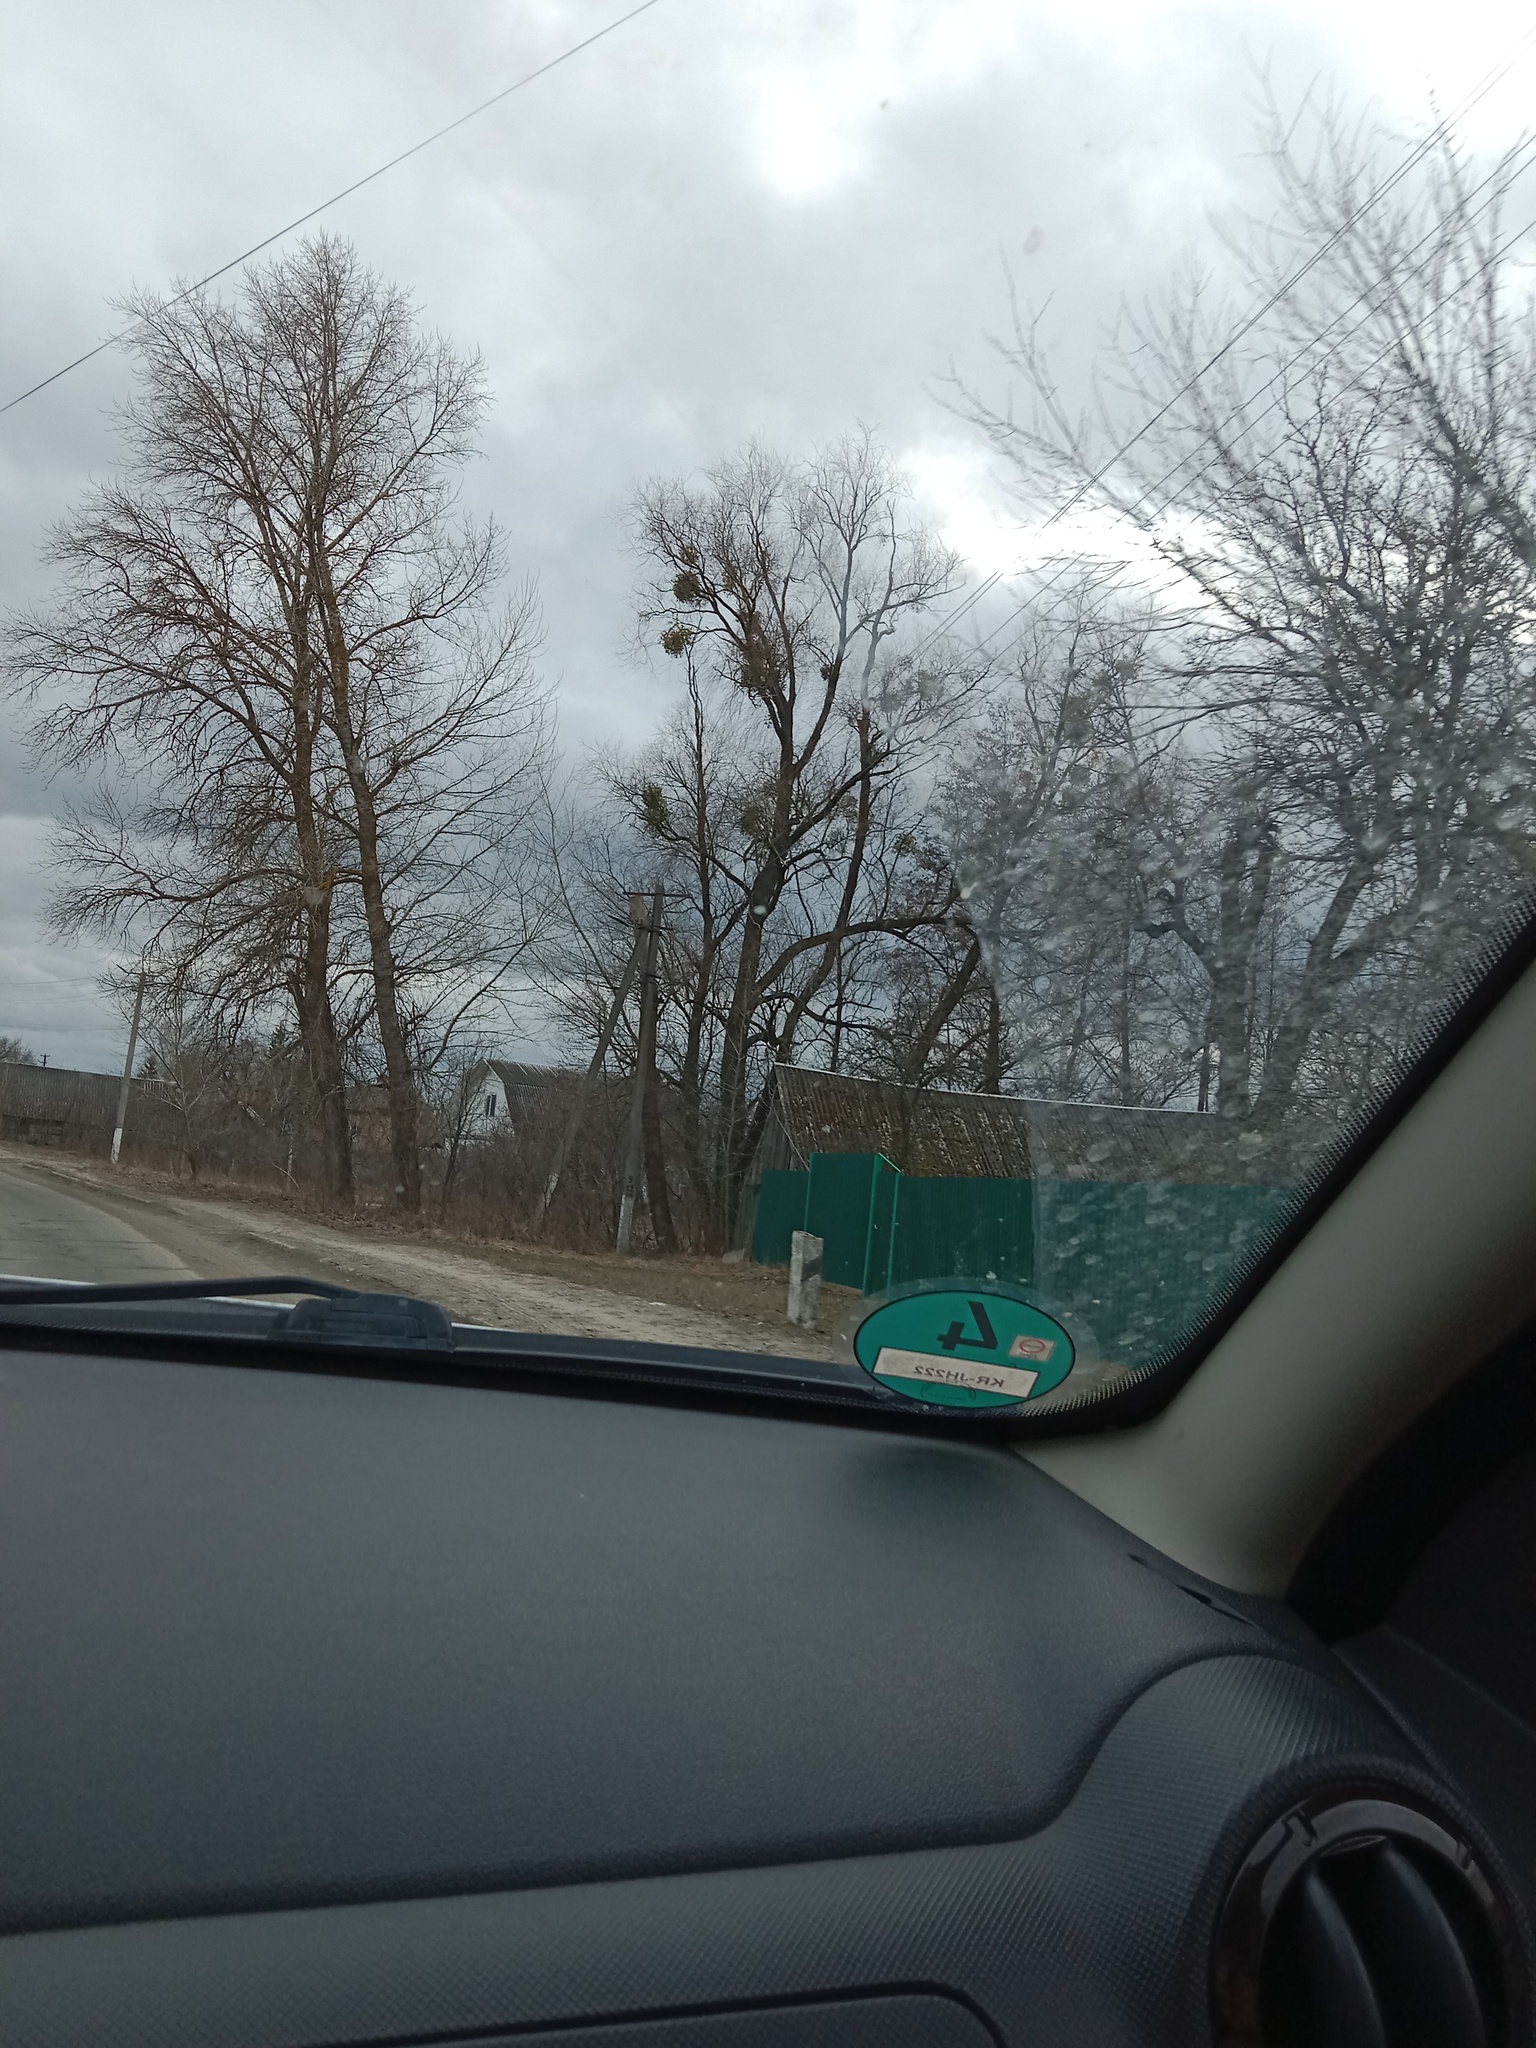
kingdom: Plantae
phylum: Tracheophyta
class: Magnoliopsida
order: Santalales
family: Viscaceae
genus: Viscum
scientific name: Viscum album
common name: Mistletoe
